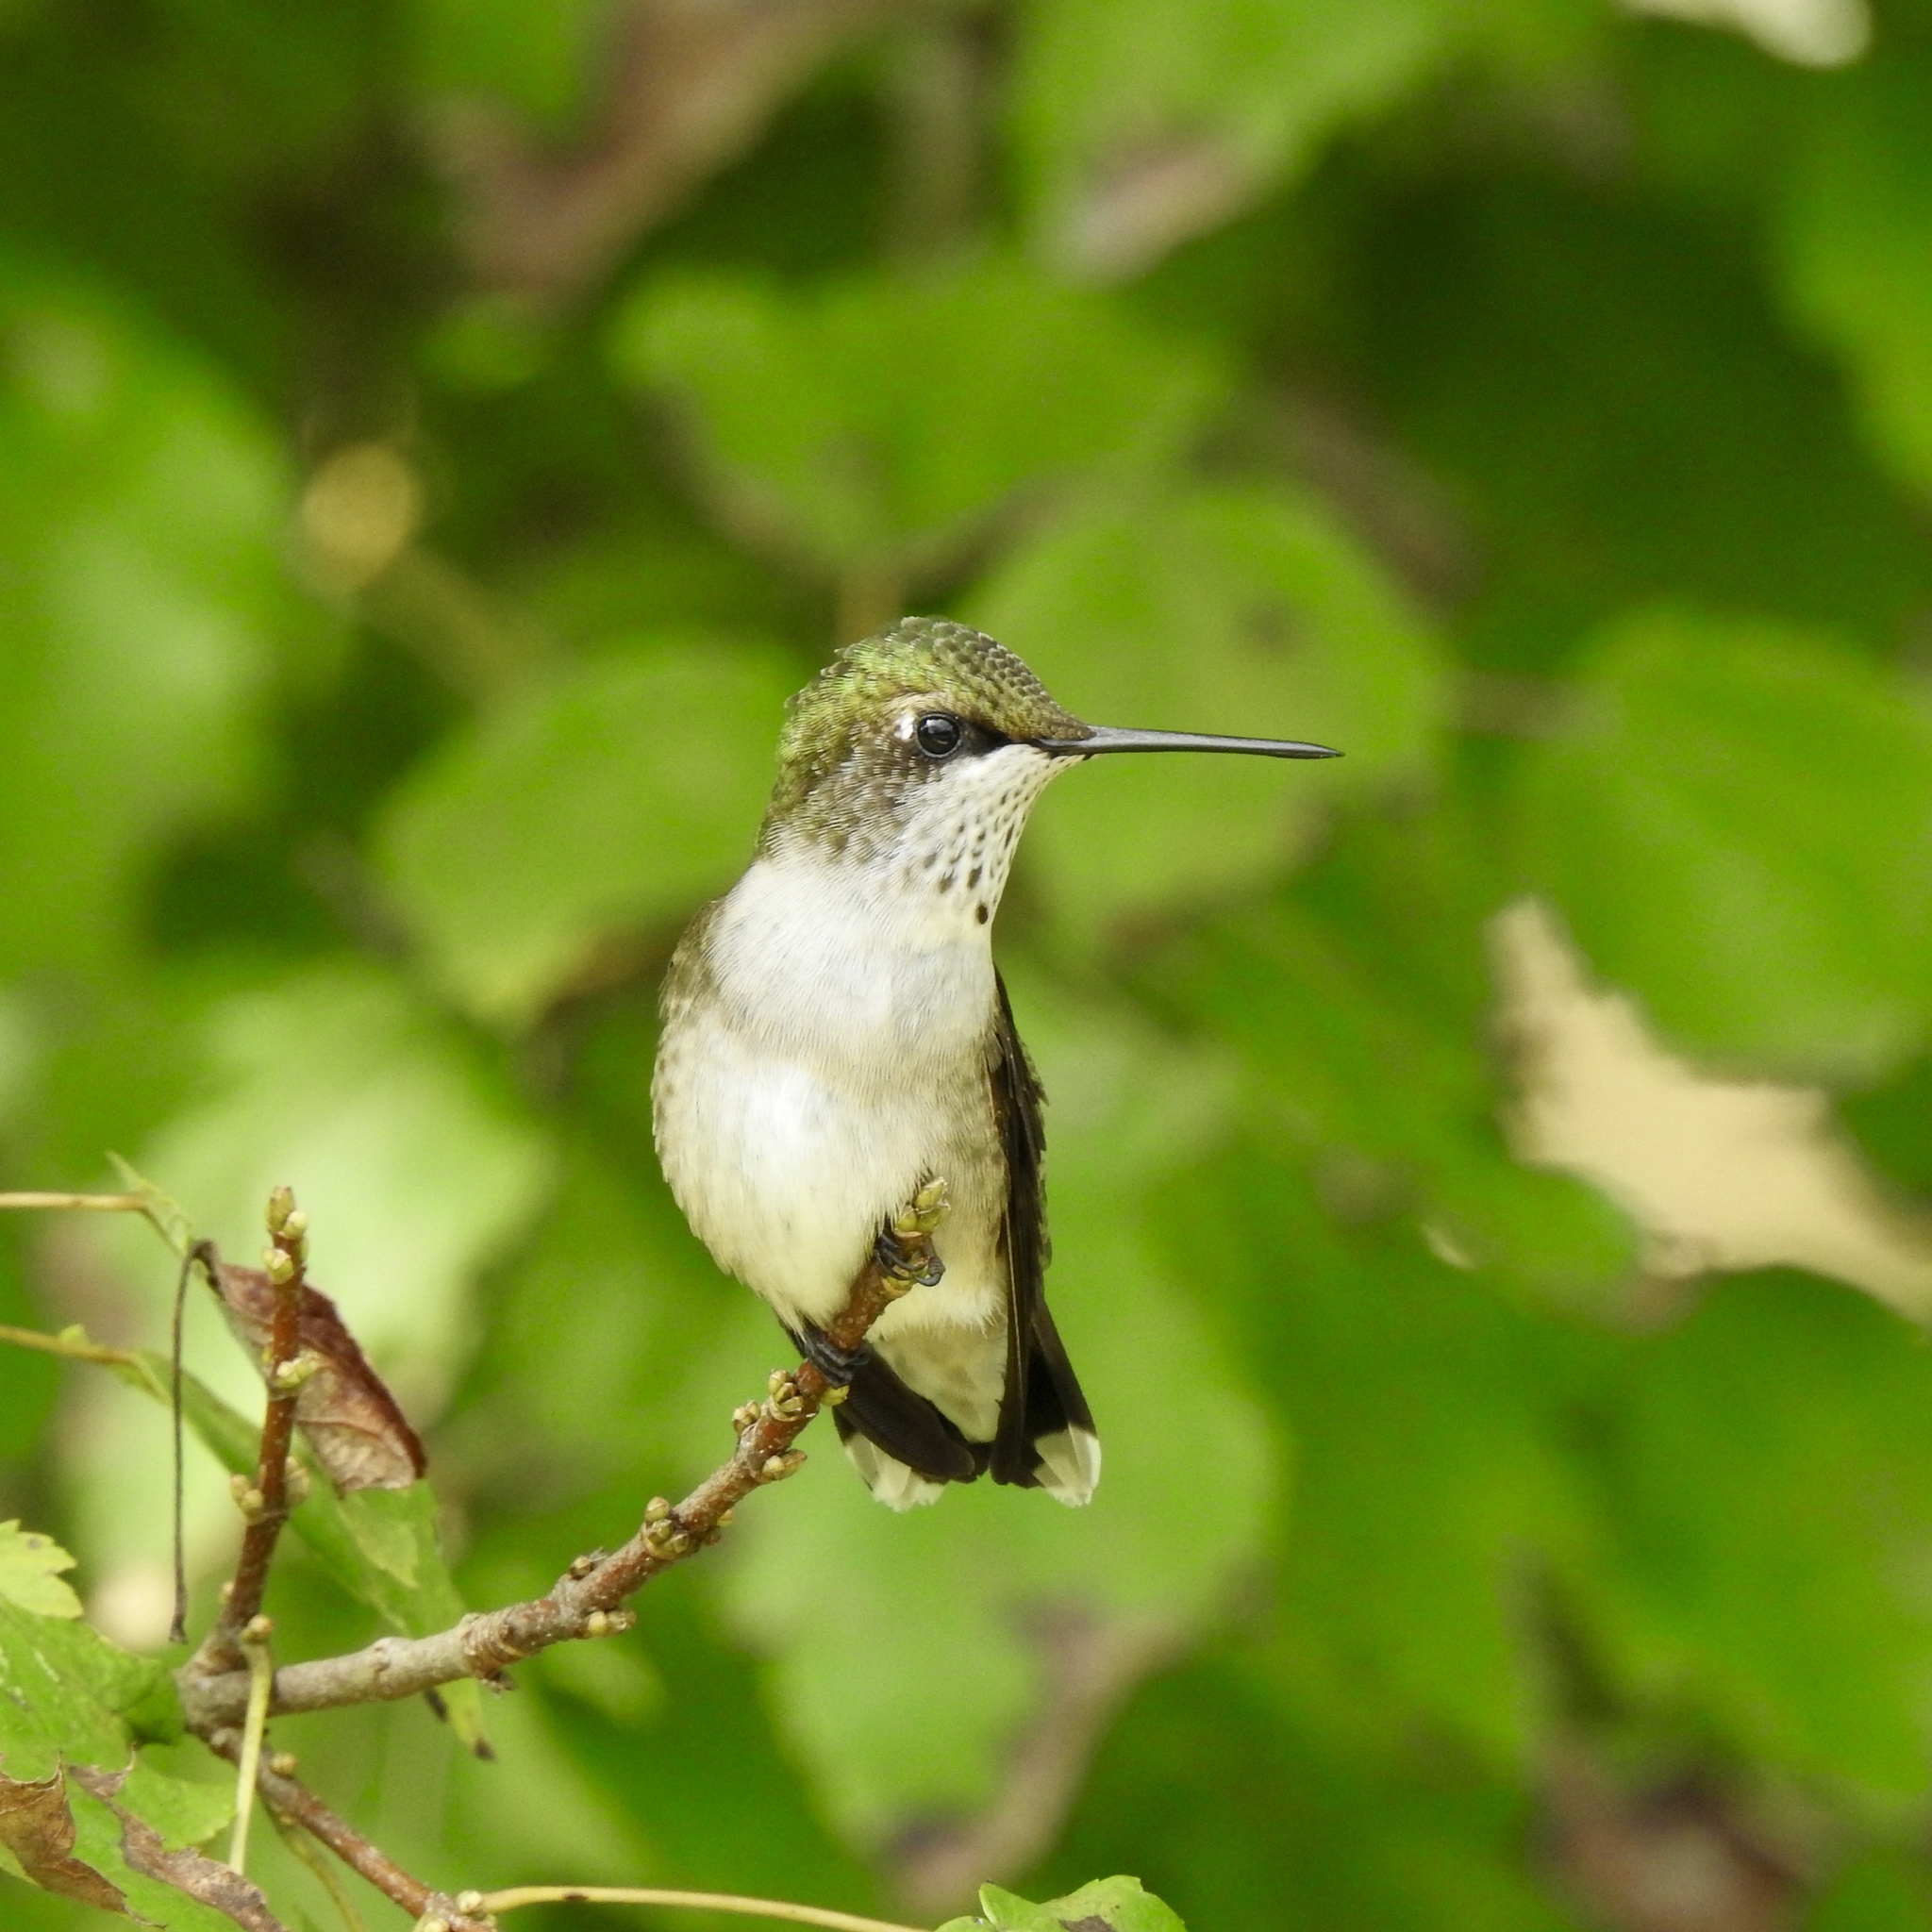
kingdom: Animalia
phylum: Chordata
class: Aves
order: Apodiformes
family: Trochilidae
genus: Archilochus
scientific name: Archilochus colubris
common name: Ruby-throated hummingbird
